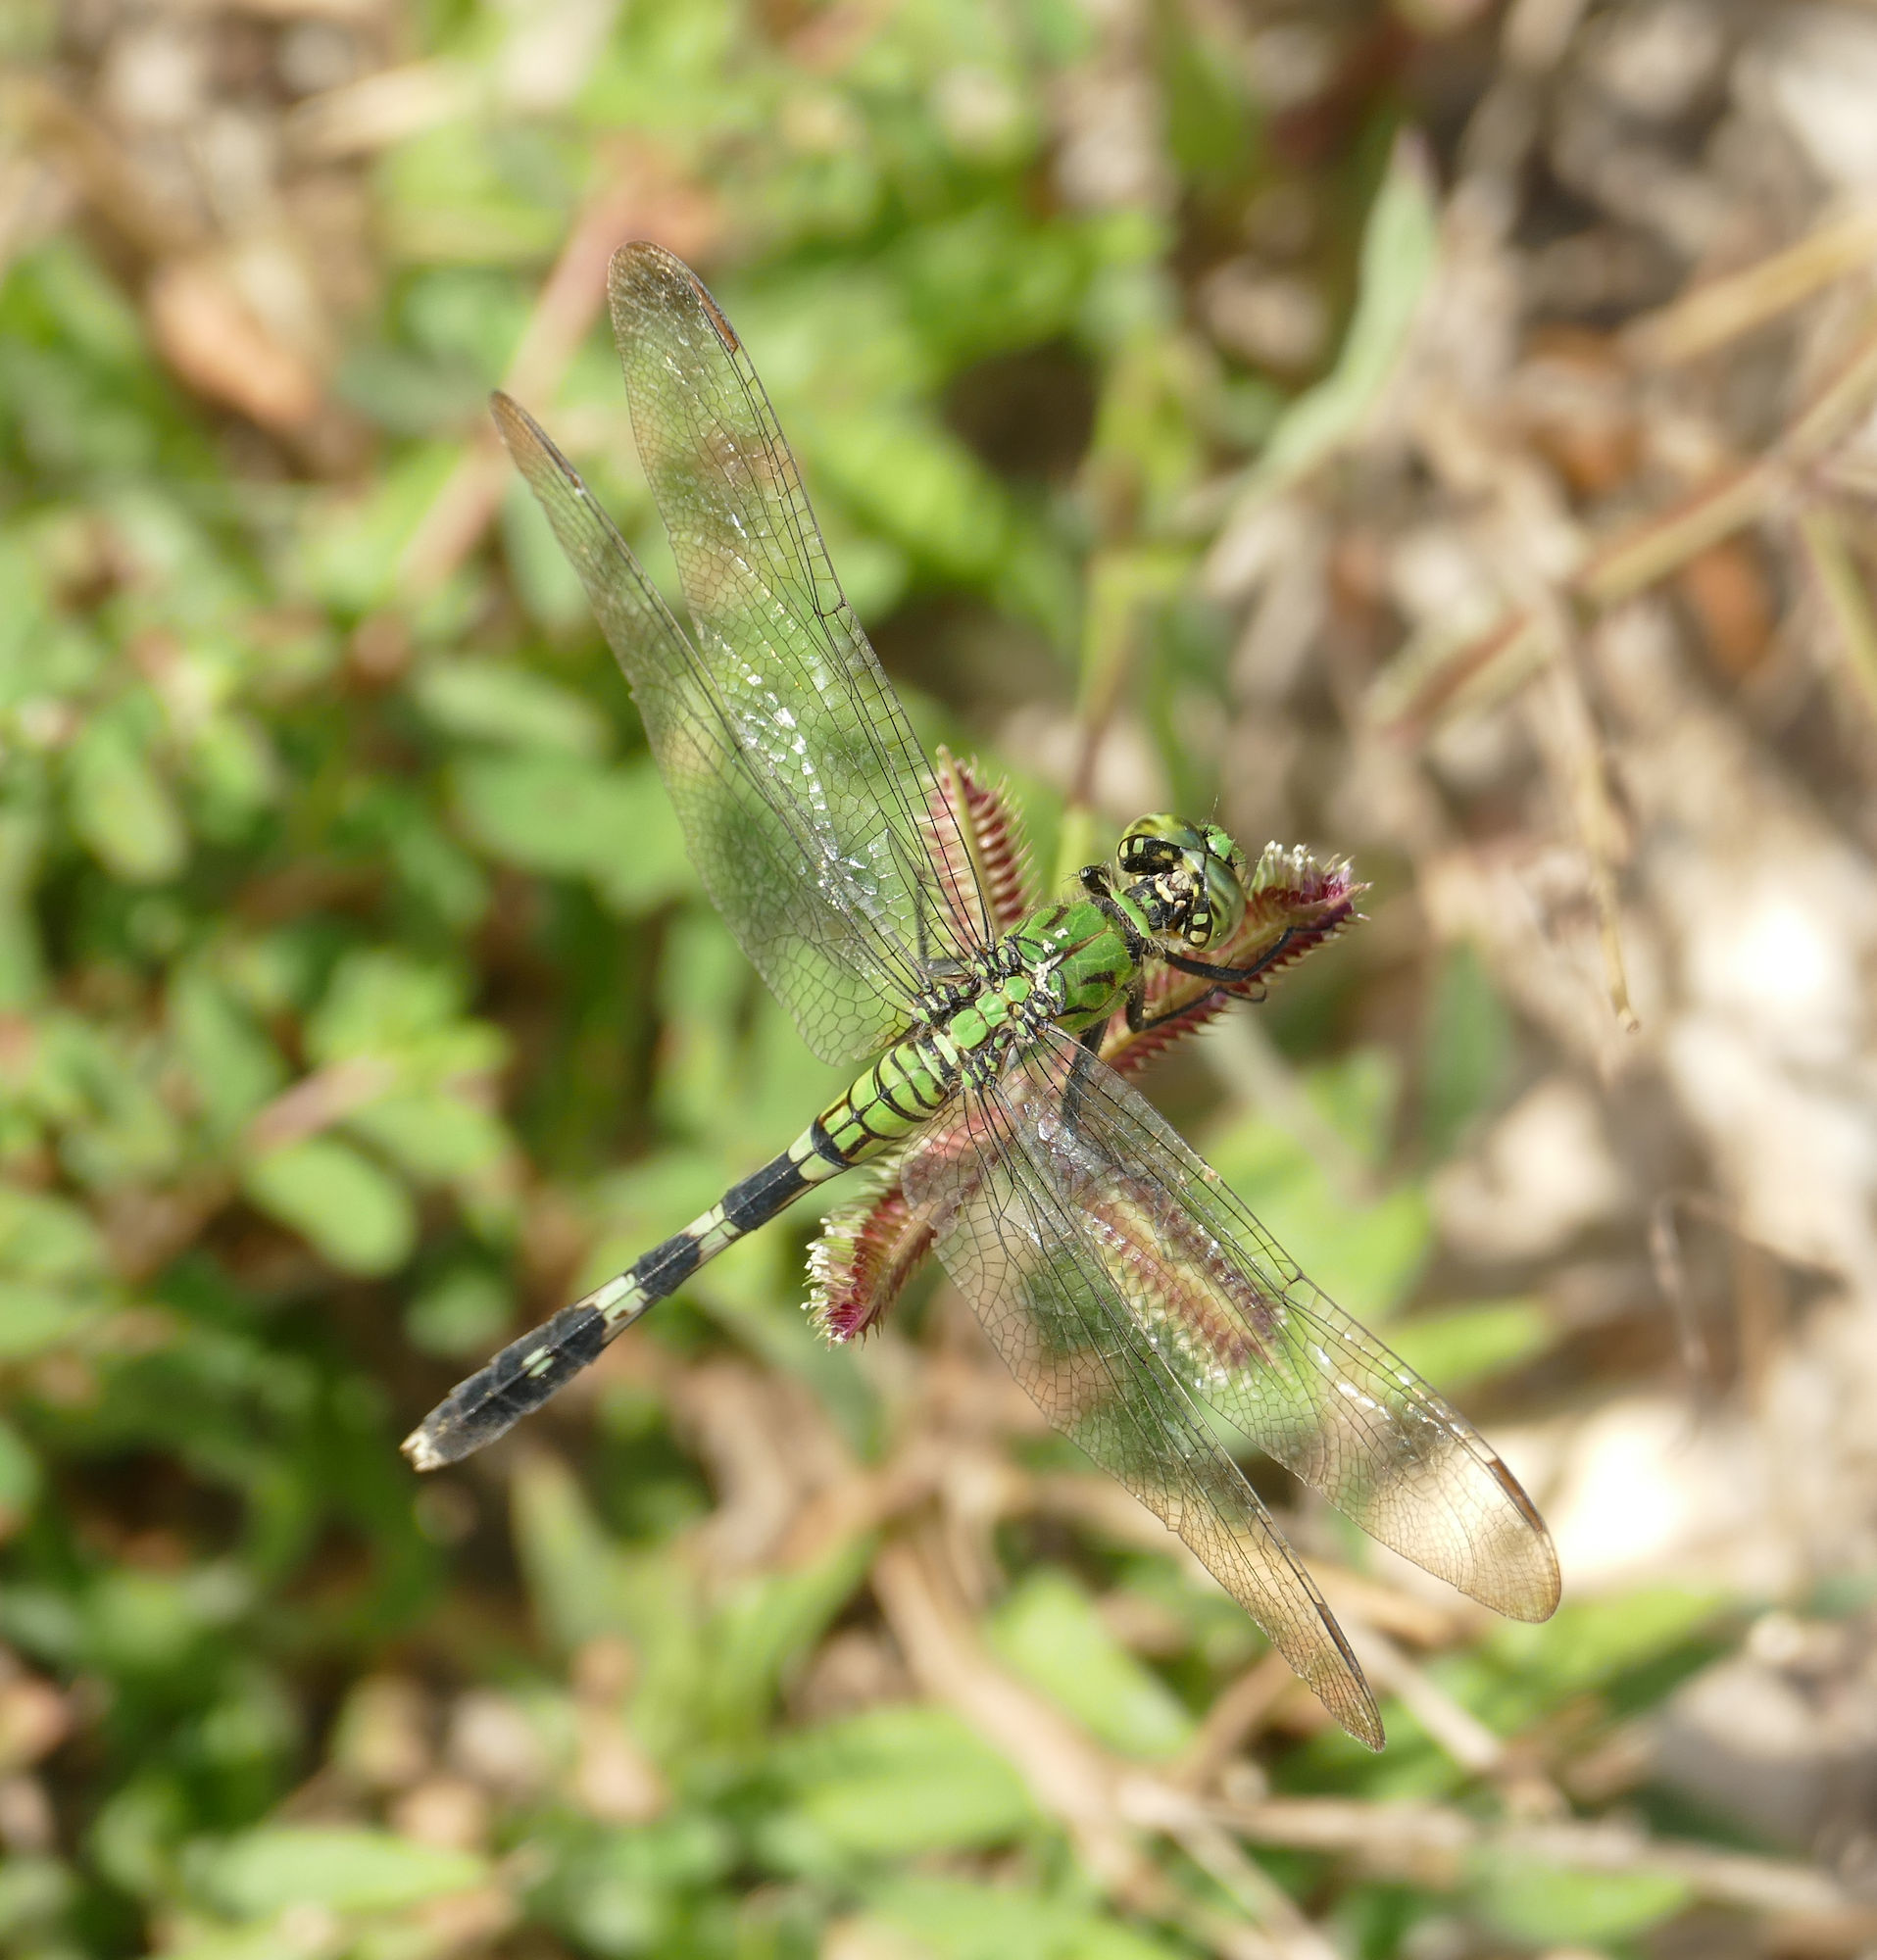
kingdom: Animalia
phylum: Arthropoda
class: Insecta
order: Odonata
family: Libellulidae
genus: Erythemis
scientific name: Erythemis simplicicollis
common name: Eastern pondhawk
